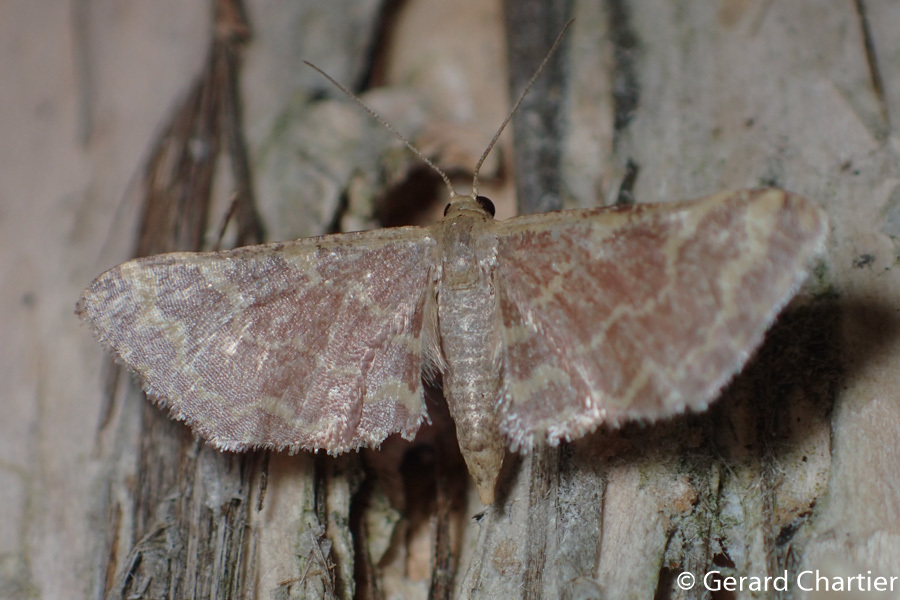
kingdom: Animalia
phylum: Arthropoda
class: Insecta
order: Lepidoptera
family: Geometridae
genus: Lophophleps
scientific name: Lophophleps purpurea
